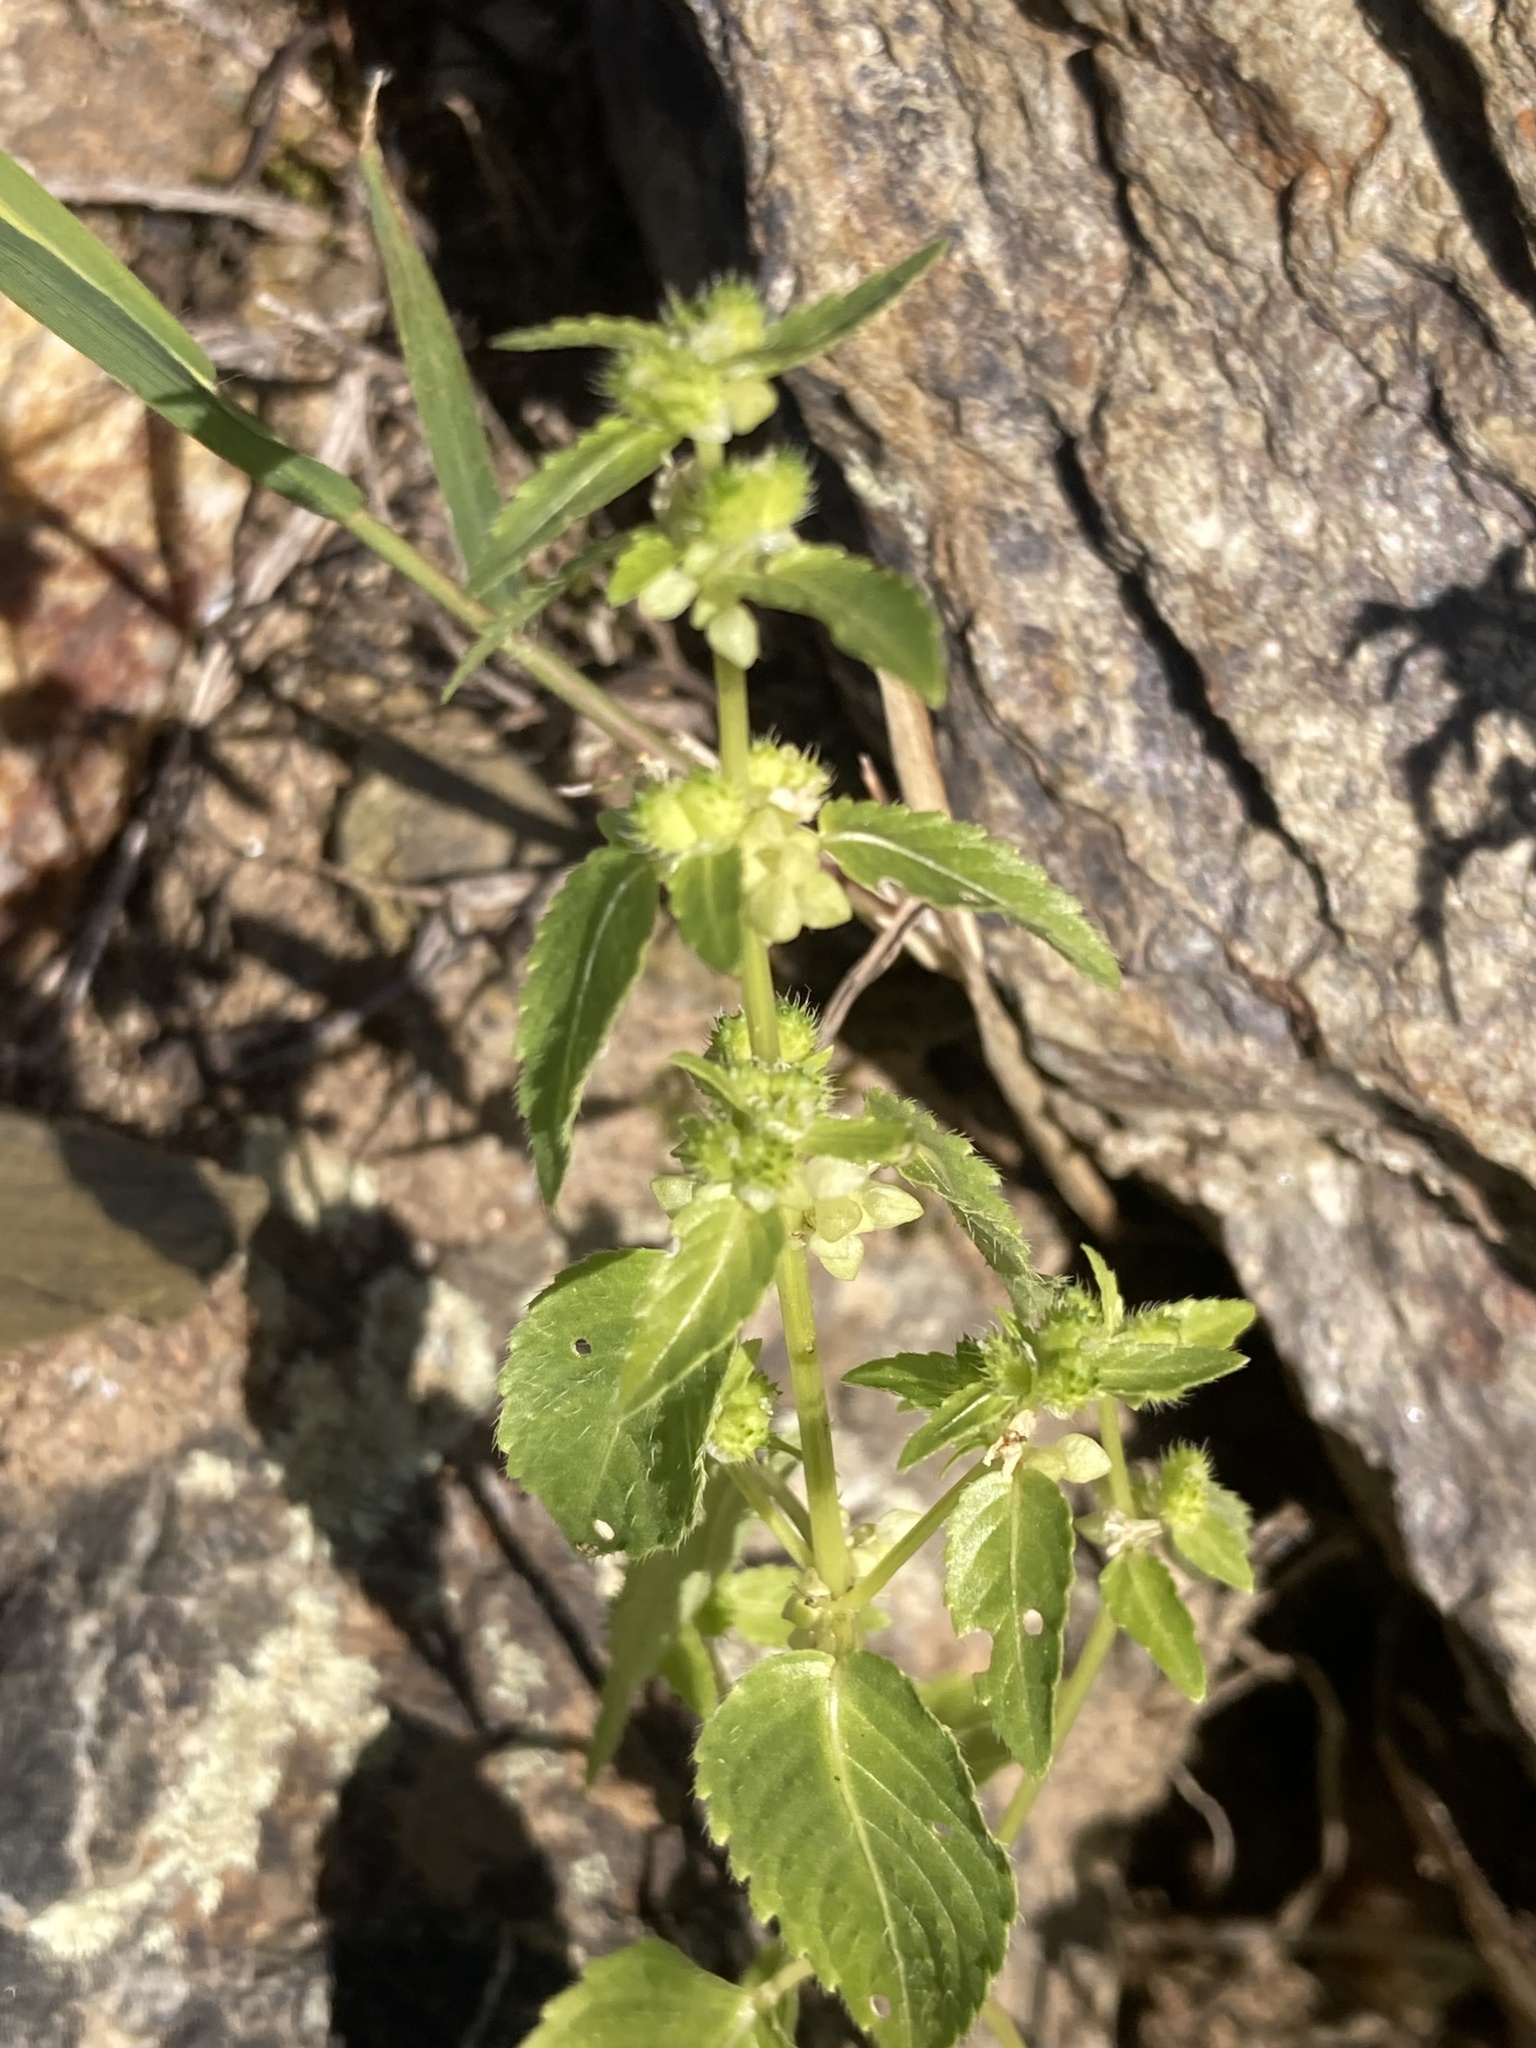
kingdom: Plantae
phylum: Tracheophyta
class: Magnoliopsida
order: Malpighiales
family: Euphorbiaceae
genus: Mercurialis
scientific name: Mercurialis annua
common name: Annual mercury
